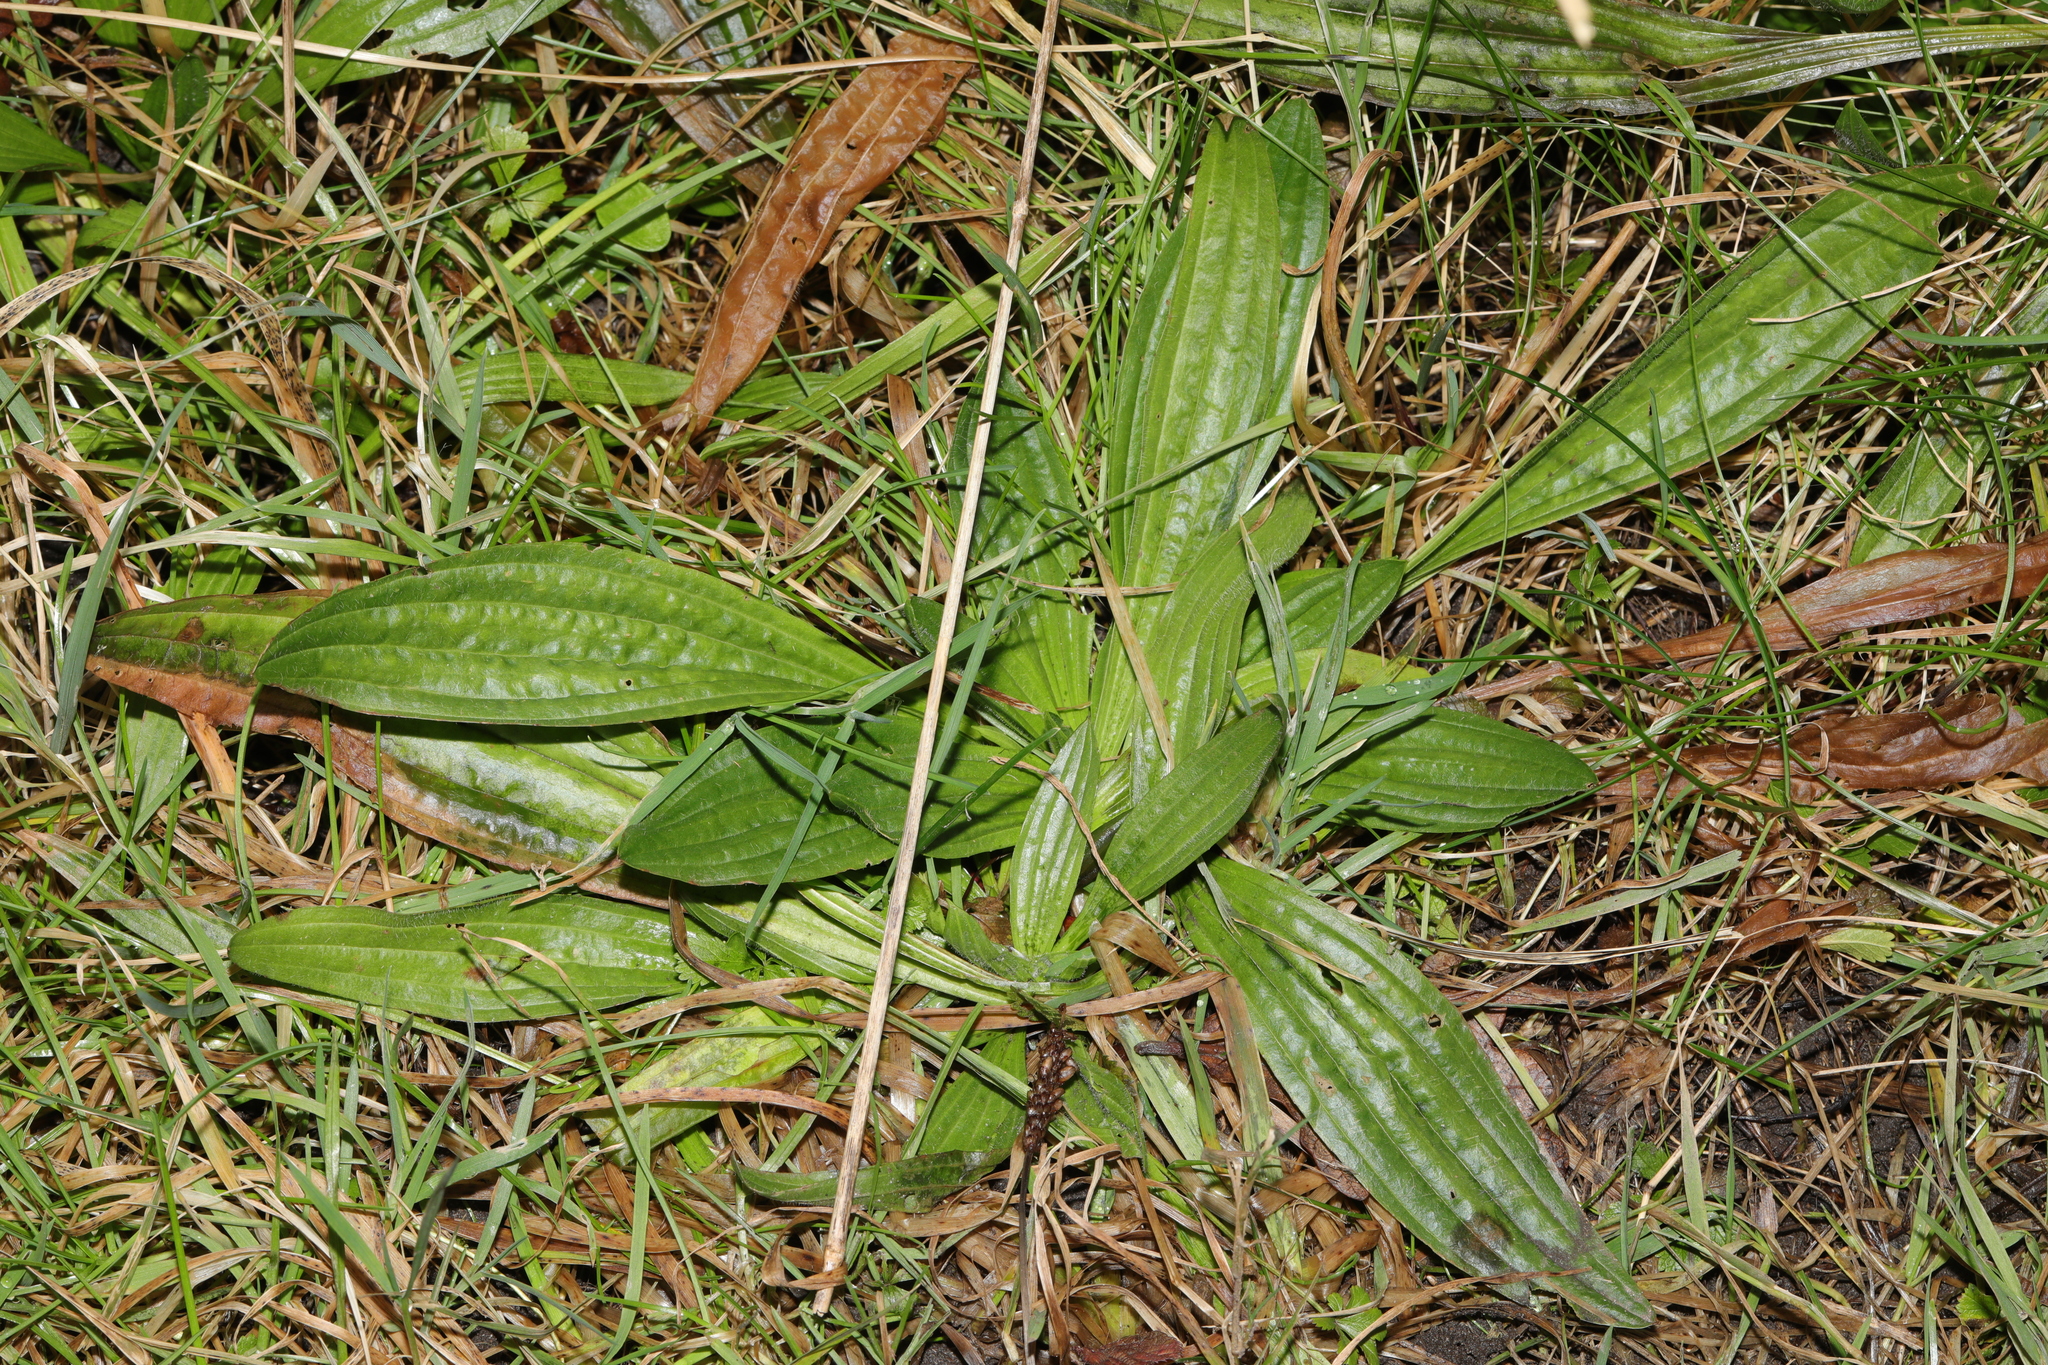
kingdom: Plantae
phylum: Tracheophyta
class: Magnoliopsida
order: Lamiales
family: Plantaginaceae
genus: Plantago
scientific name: Plantago lanceolata
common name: Ribwort plantain
